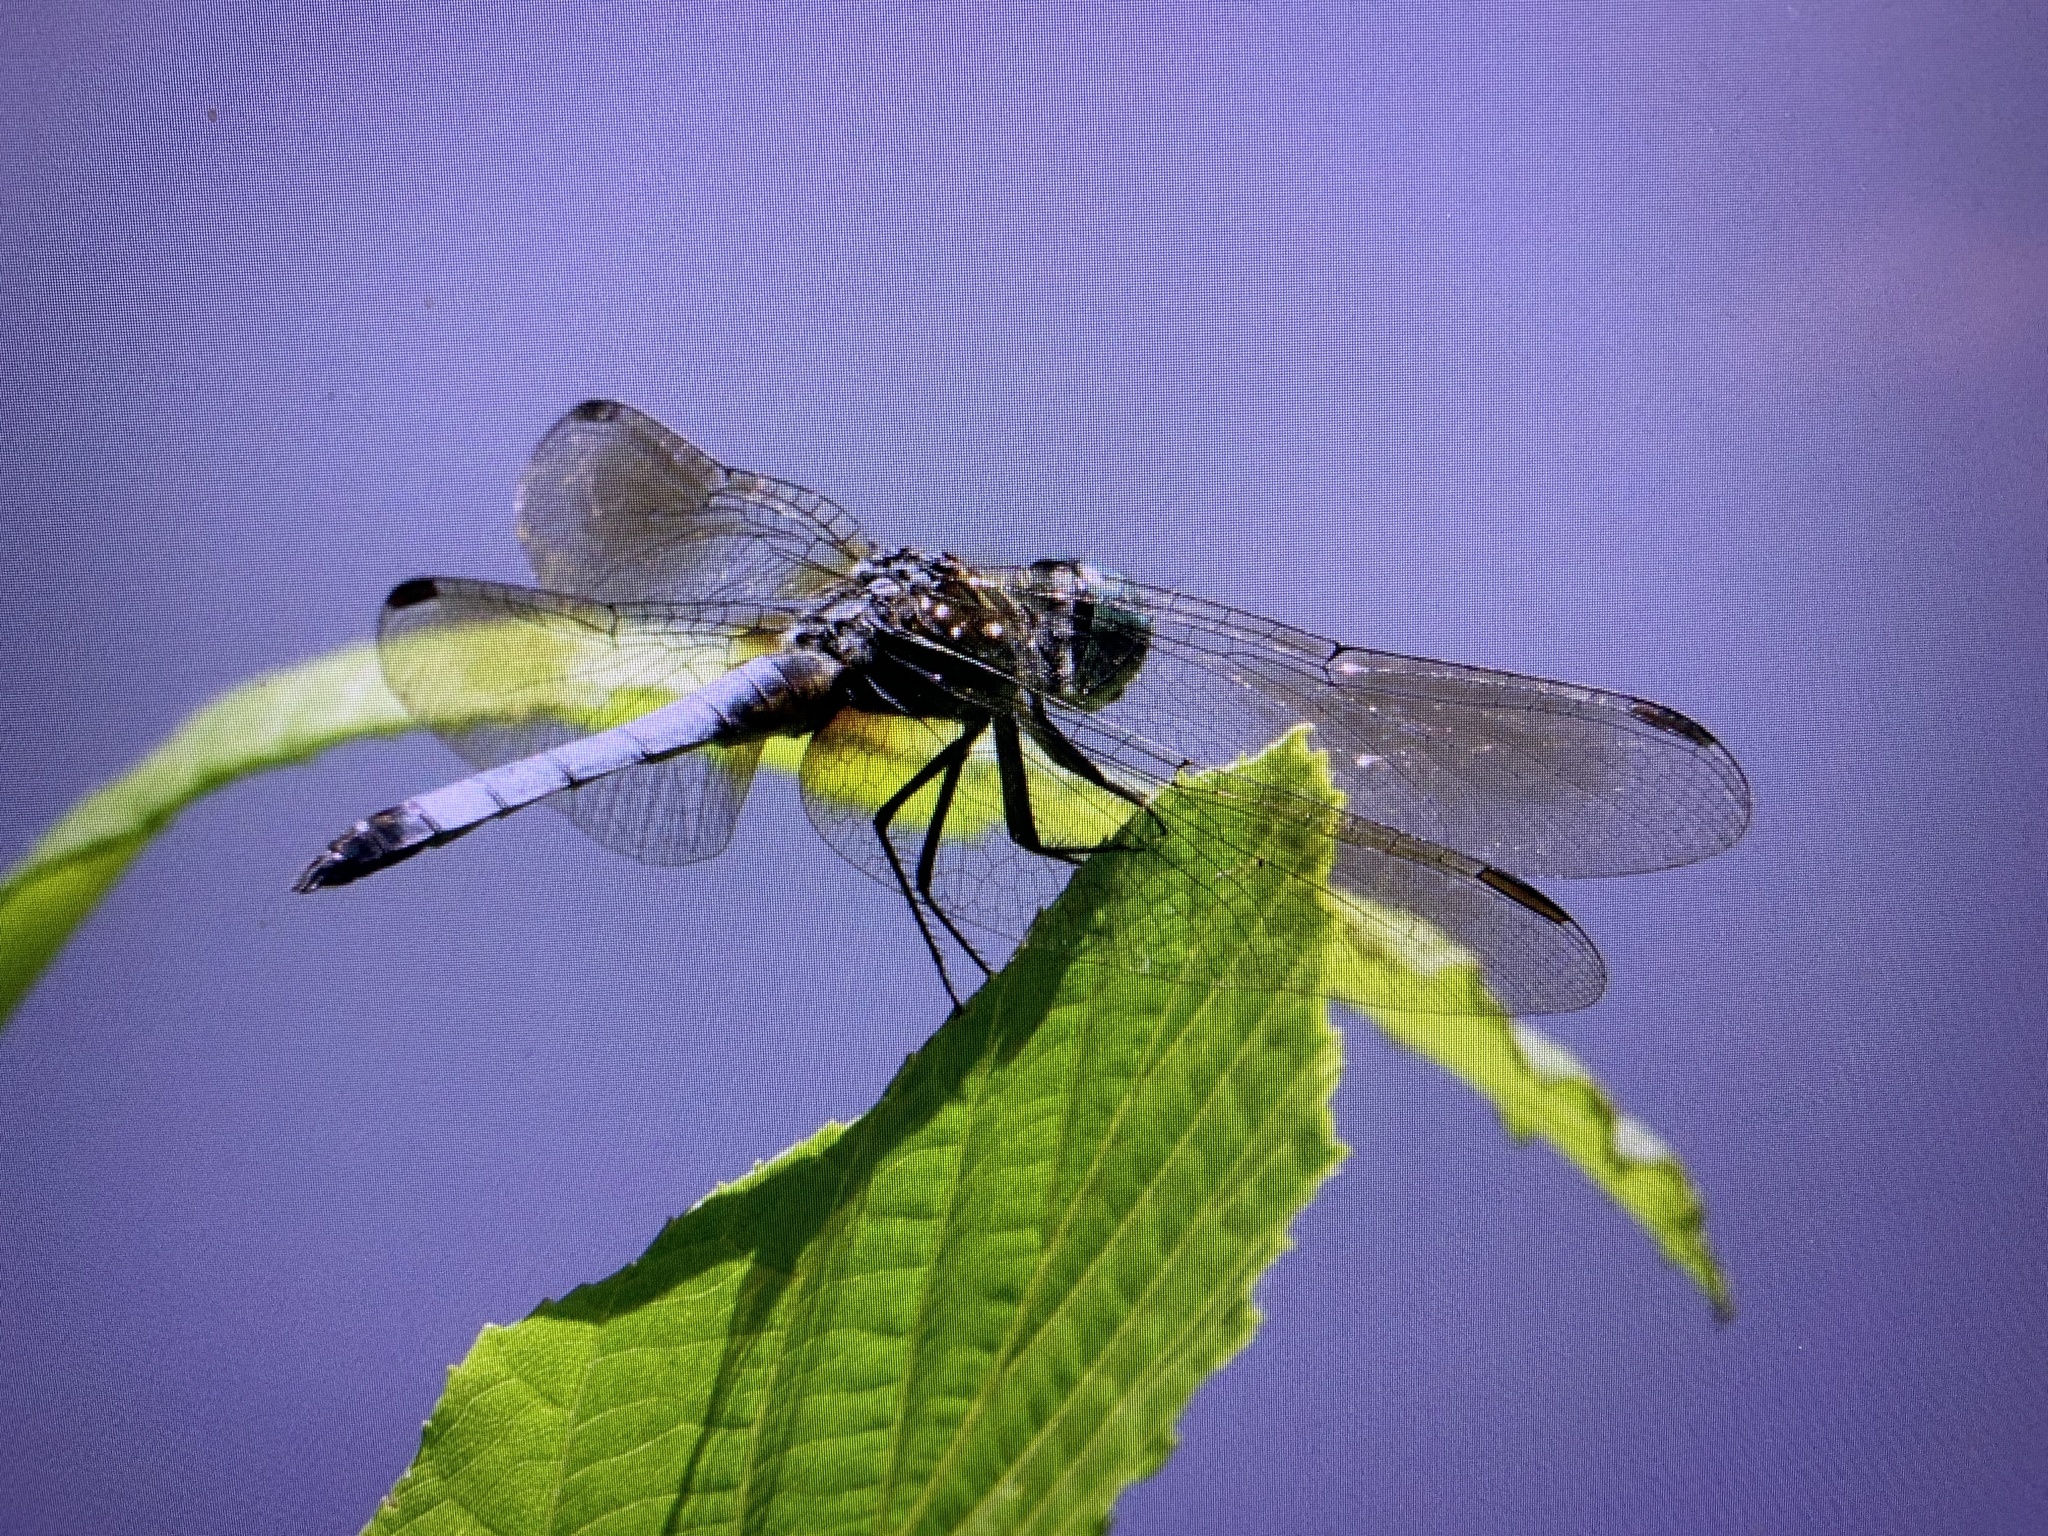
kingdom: Animalia
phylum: Arthropoda
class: Insecta
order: Odonata
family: Libellulidae
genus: Pachydiplax
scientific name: Pachydiplax longipennis
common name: Blue dasher
